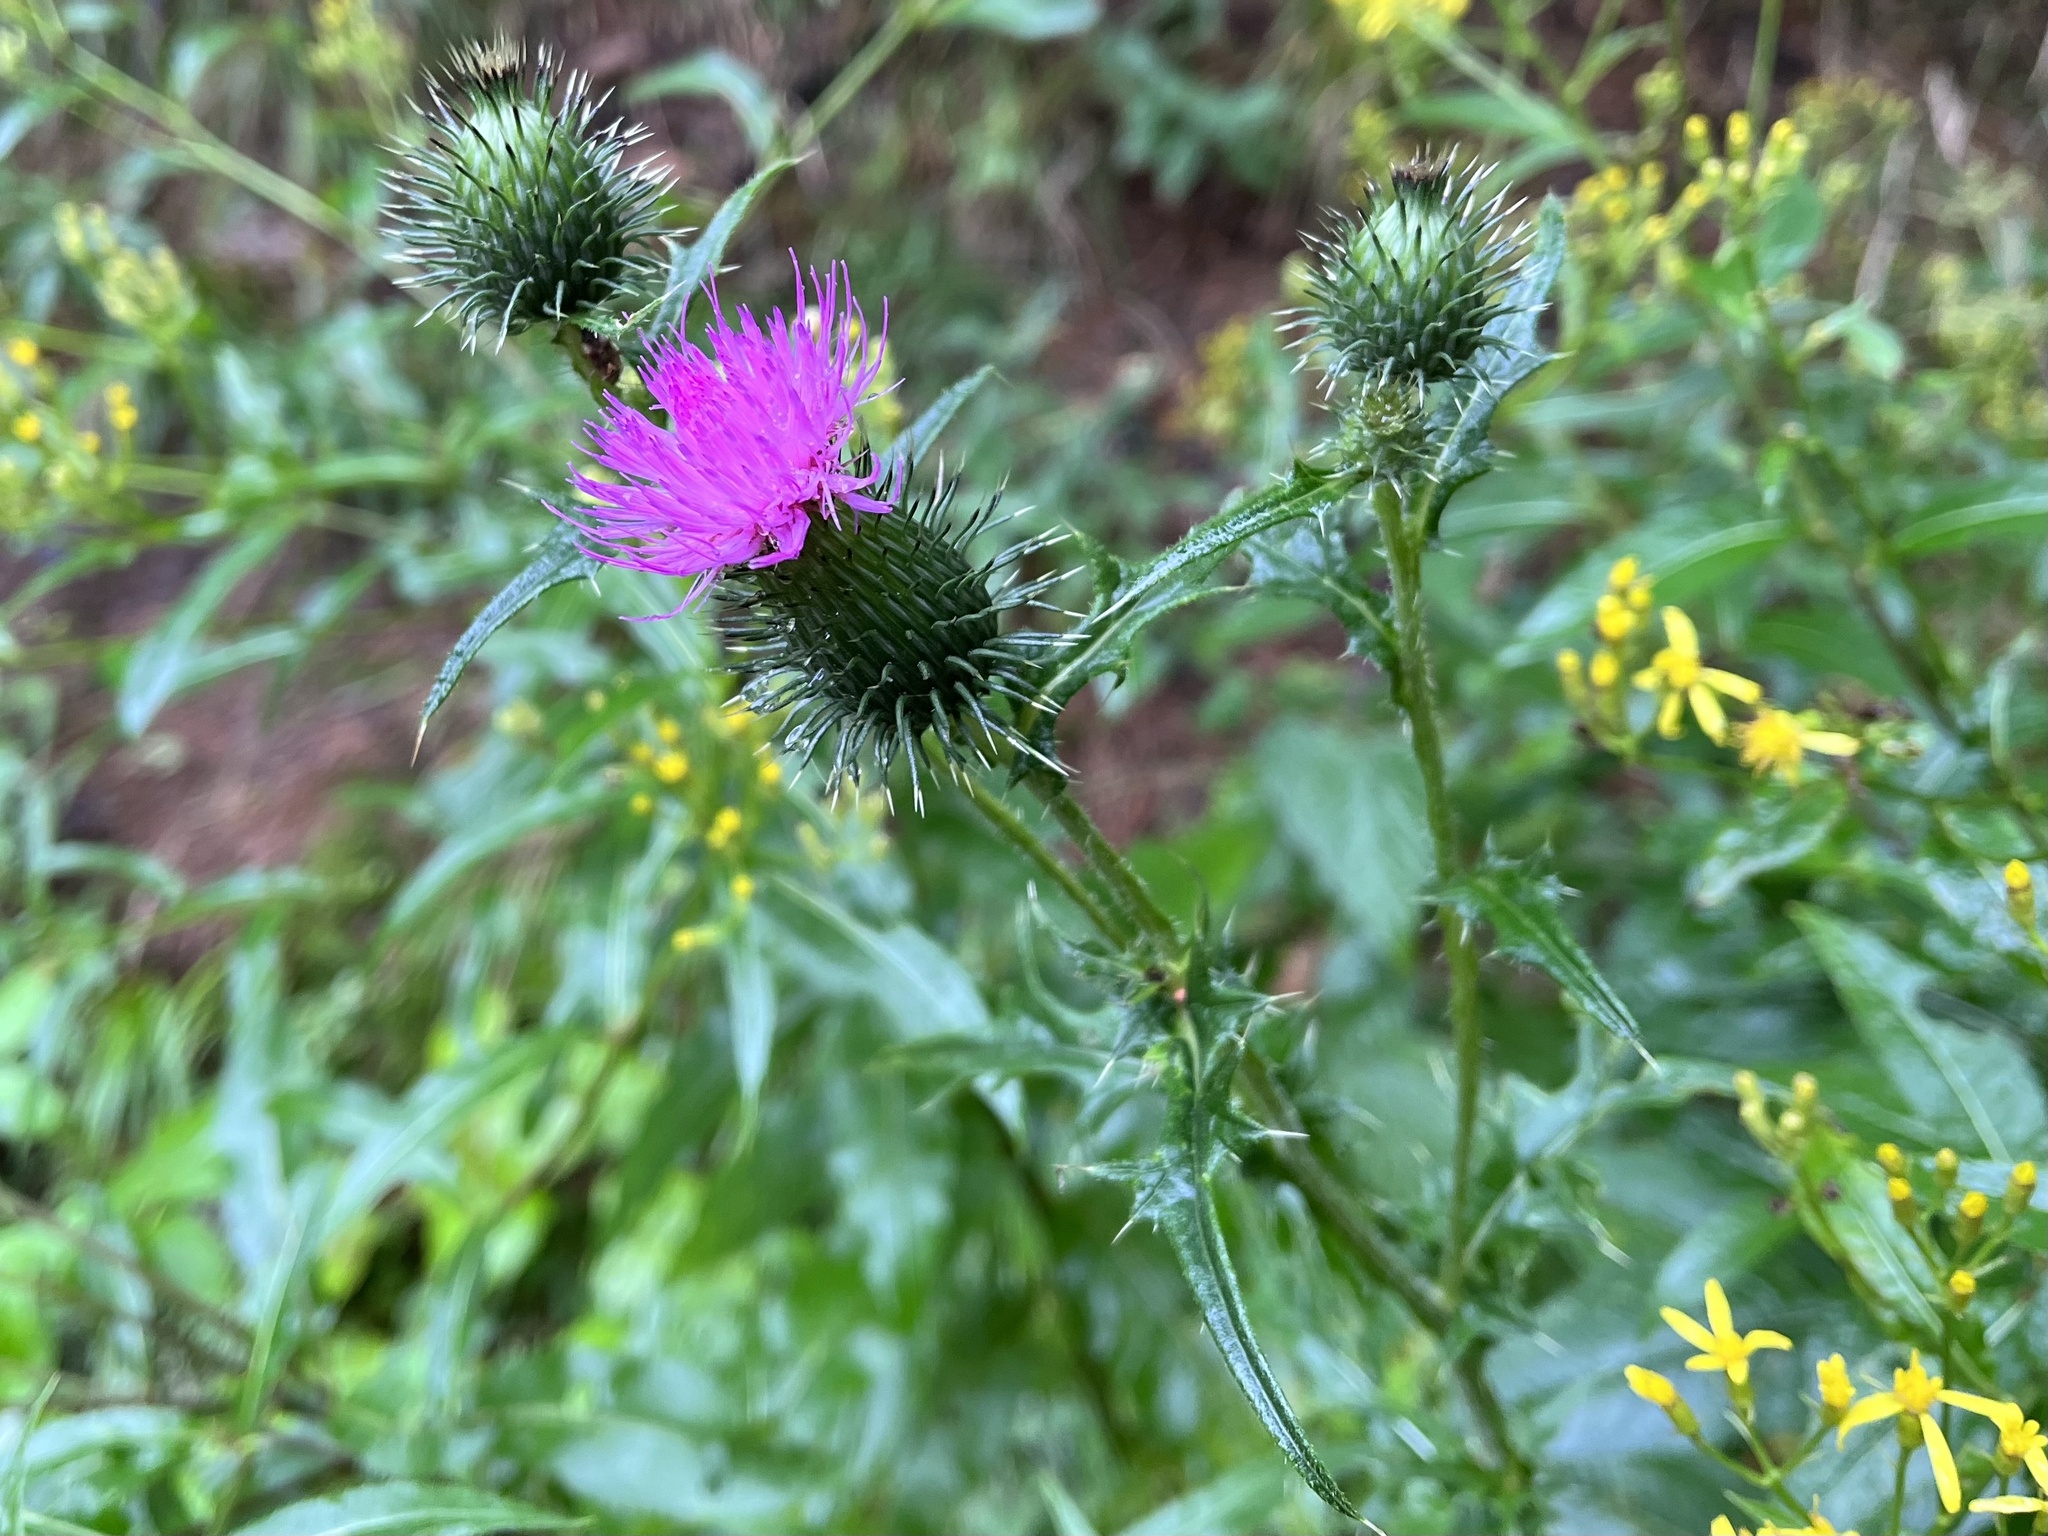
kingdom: Plantae
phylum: Tracheophyta
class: Magnoliopsida
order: Asterales
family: Asteraceae
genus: Cirsium
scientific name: Cirsium vulgare
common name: Bull thistle
